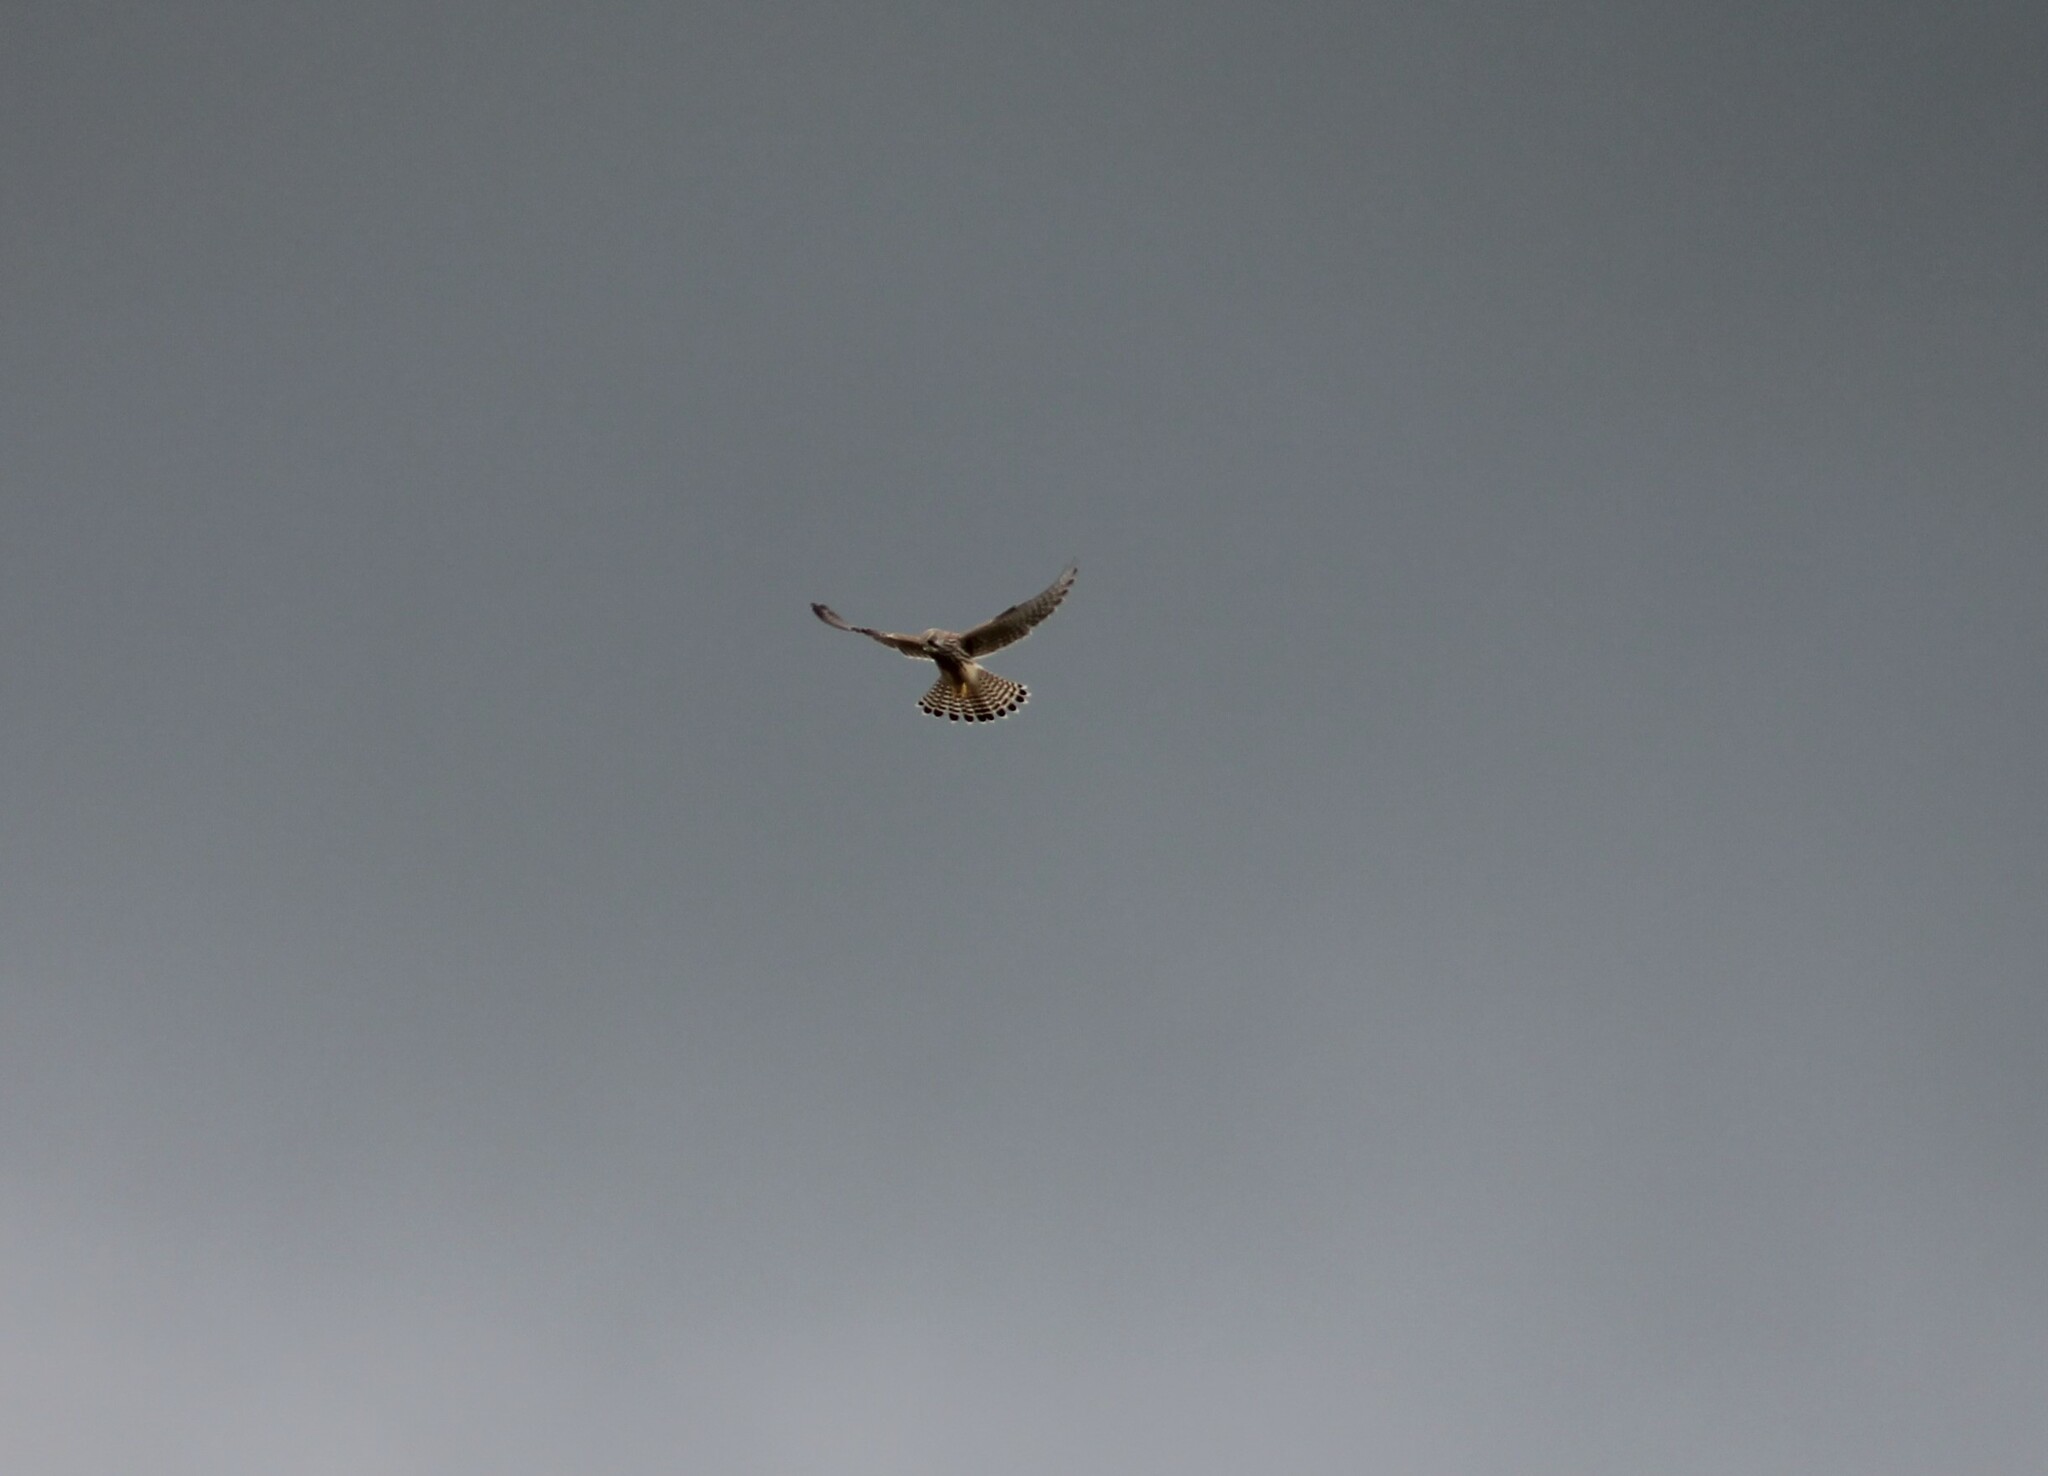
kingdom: Animalia
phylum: Chordata
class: Aves
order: Falconiformes
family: Falconidae
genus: Falco
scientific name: Falco tinnunculus
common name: Common kestrel
